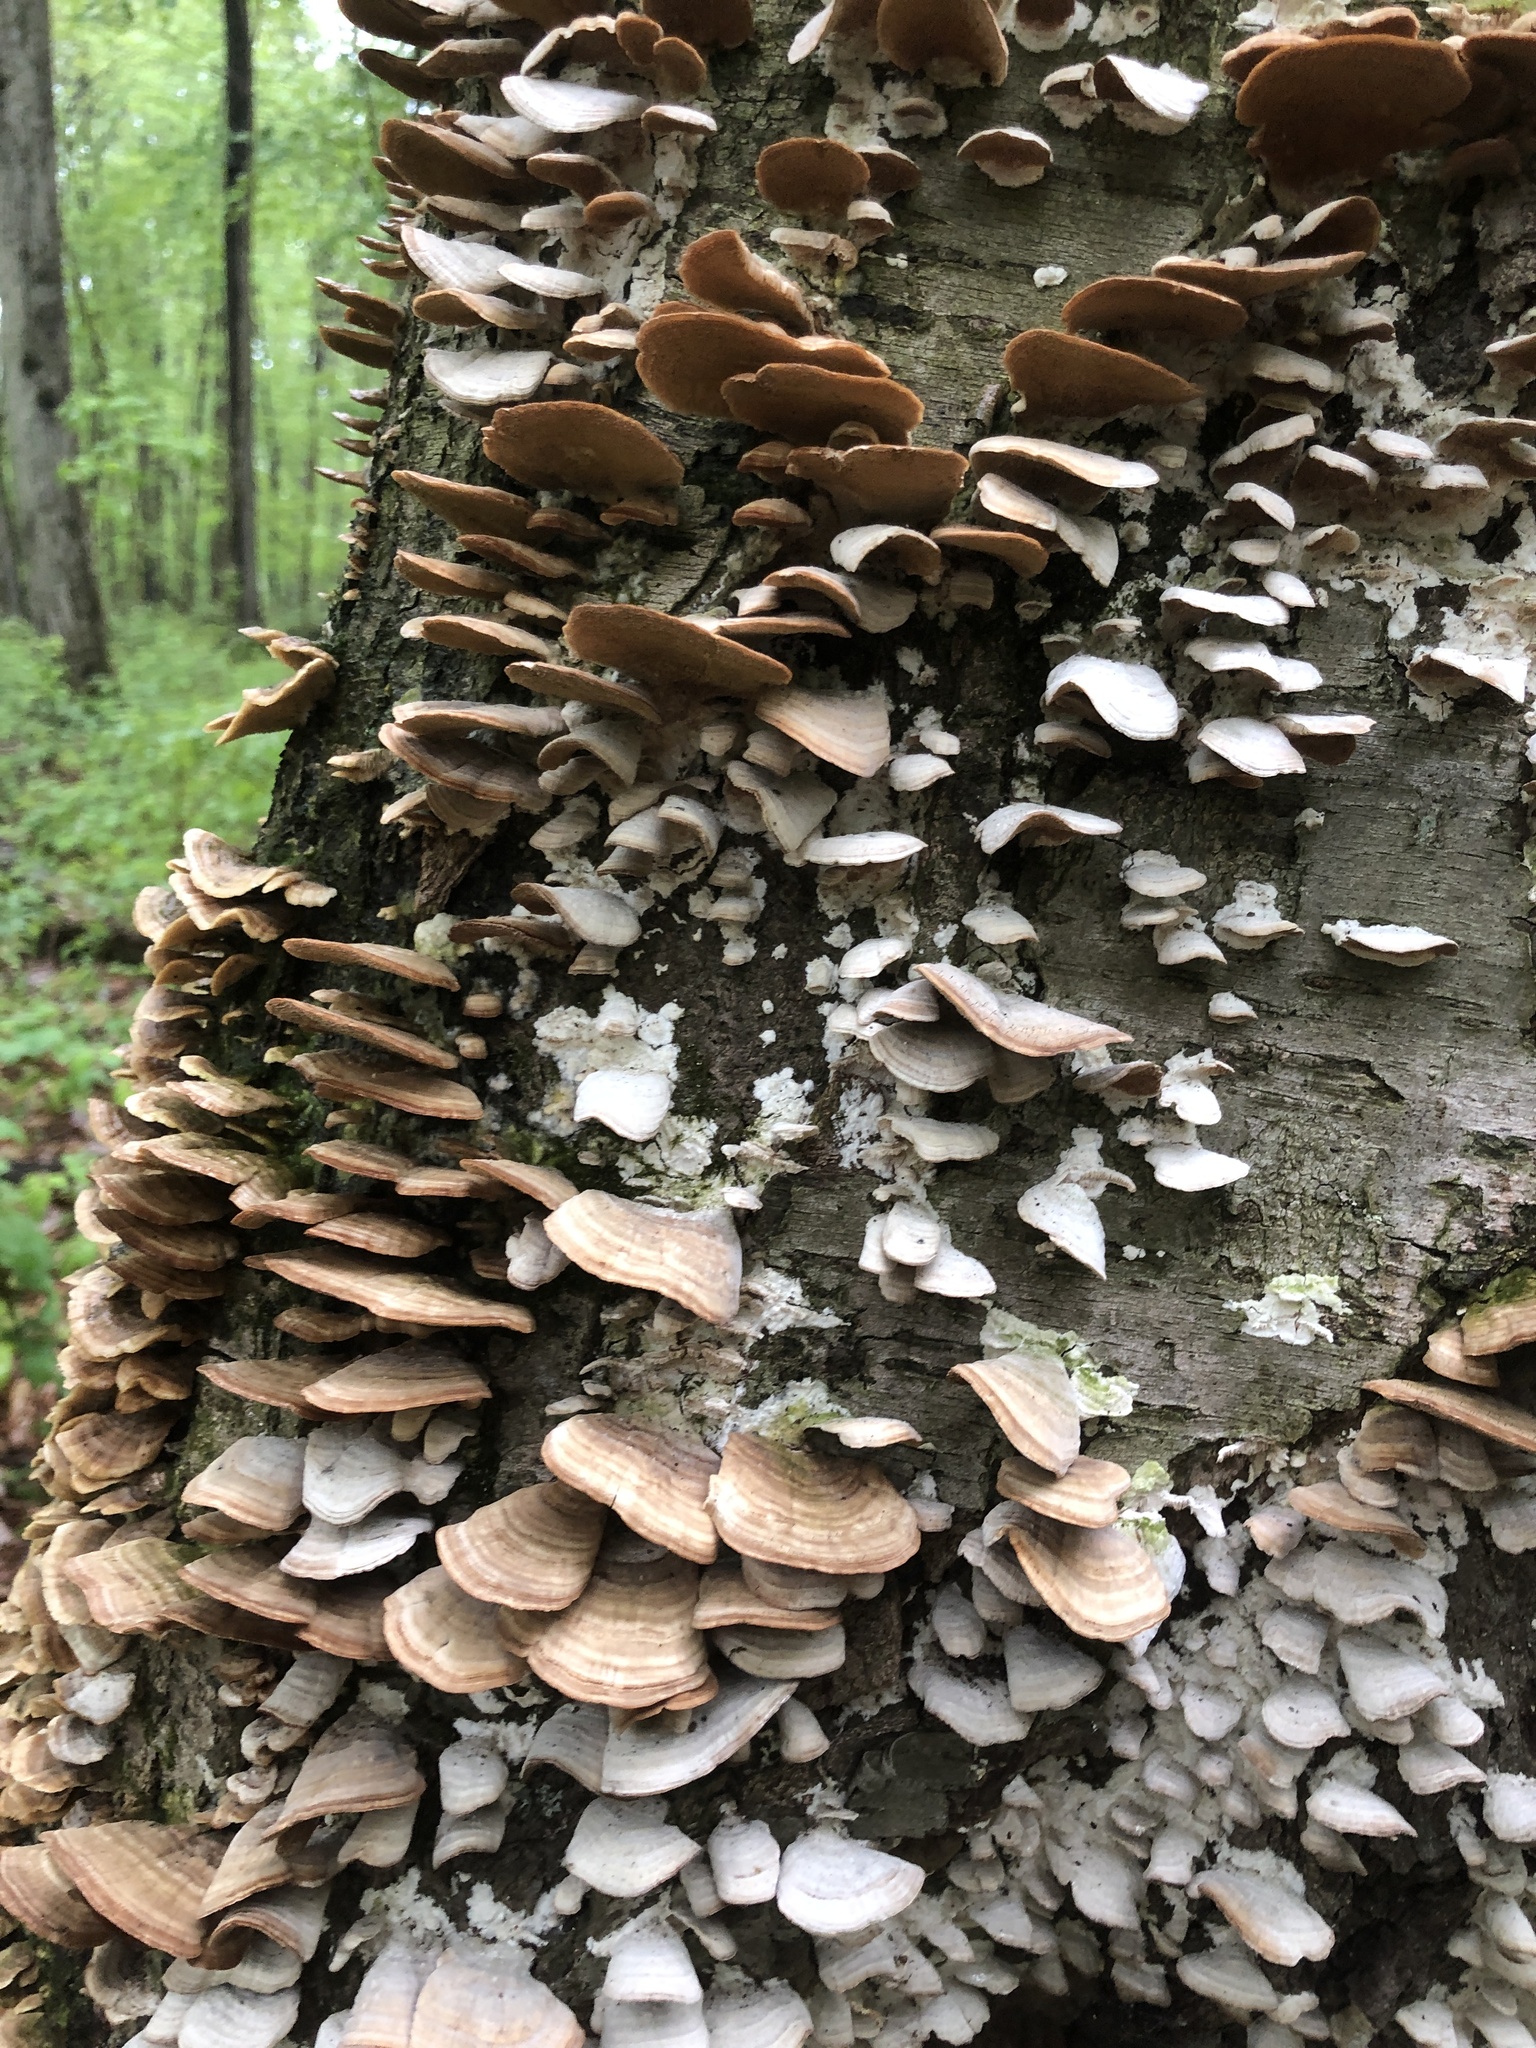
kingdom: Fungi
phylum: Basidiomycota
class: Agaricomycetes
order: Hymenochaetales
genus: Trichaptum
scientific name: Trichaptum biforme
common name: Violet-toothed polypore
